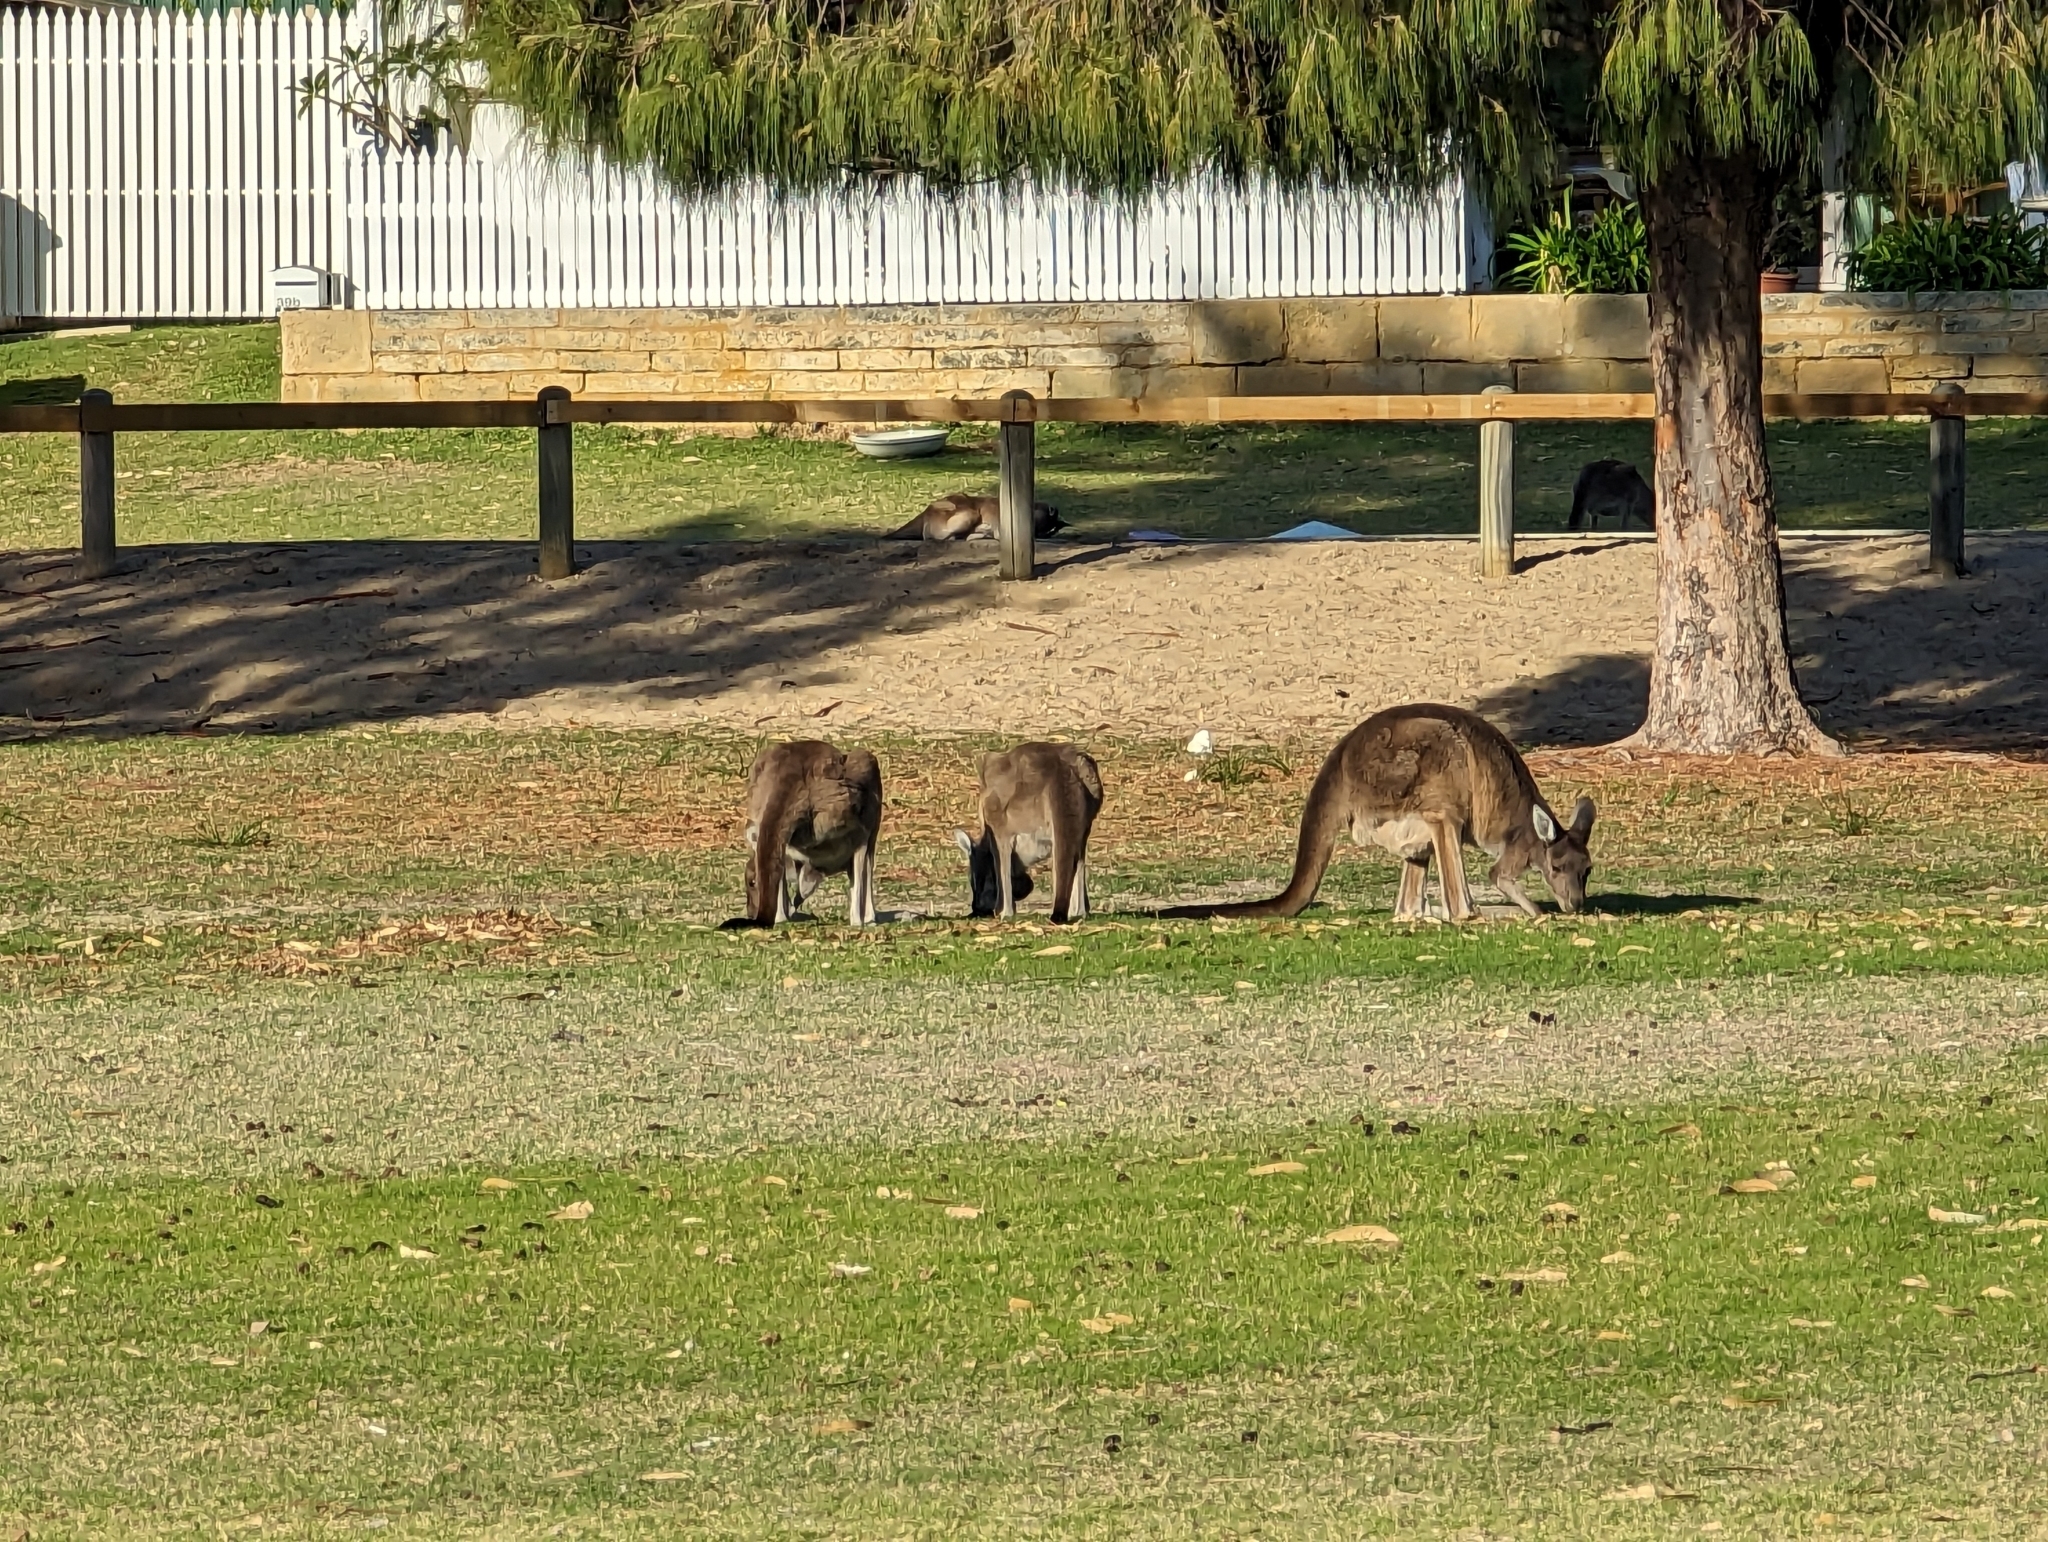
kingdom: Animalia
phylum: Chordata
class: Mammalia
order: Diprotodontia
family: Macropodidae
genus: Macropus
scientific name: Macropus fuliginosus
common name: Western grey kangaroo
